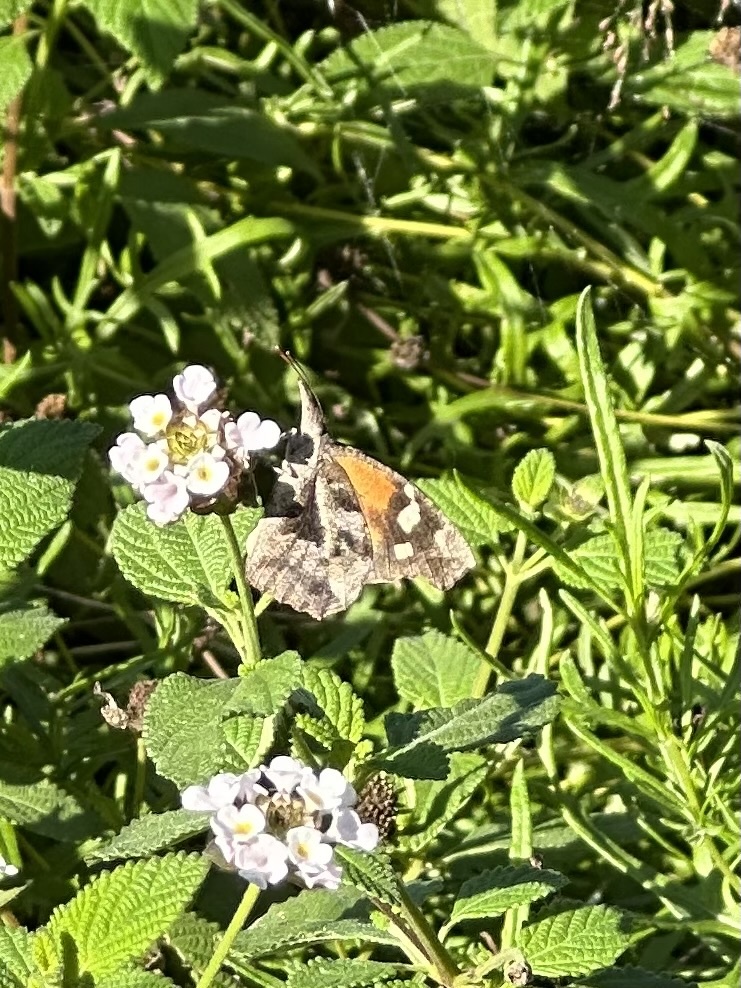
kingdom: Animalia
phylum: Arthropoda
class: Insecta
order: Lepidoptera
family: Nymphalidae
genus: Libytheana
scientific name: Libytheana carinenta
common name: American snout
